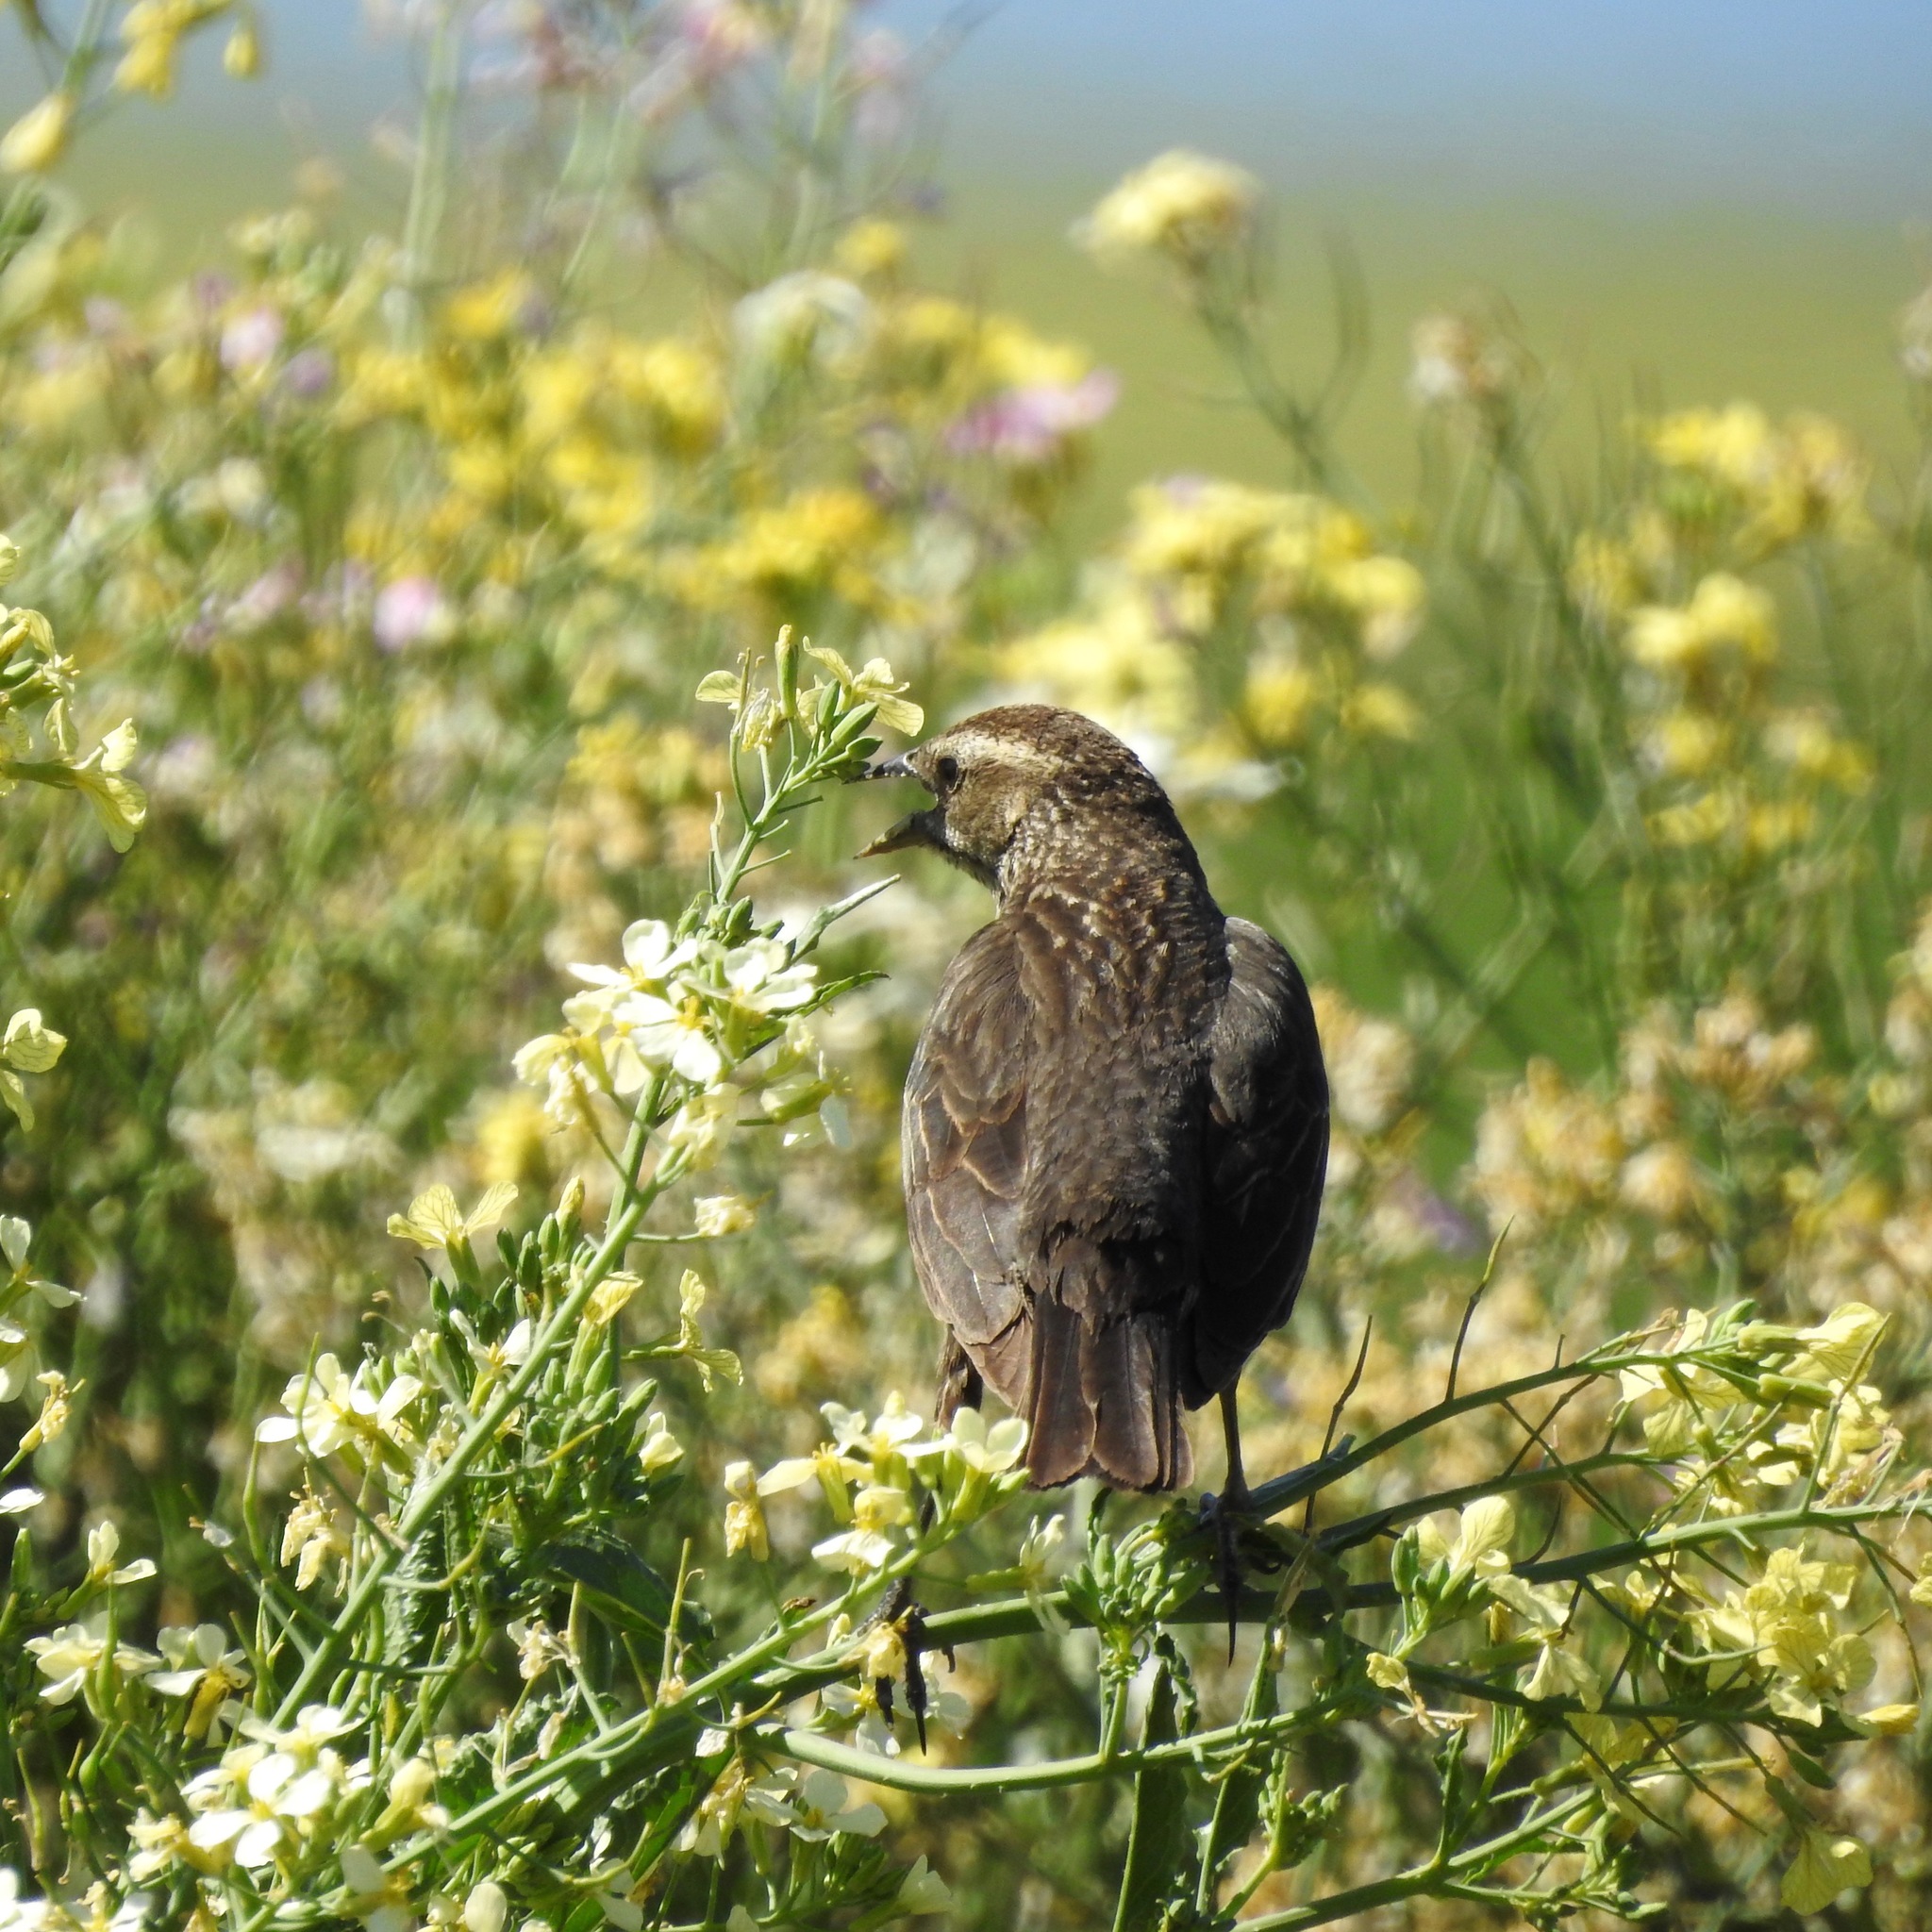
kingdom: Animalia
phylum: Chordata
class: Aves
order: Passeriformes
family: Icteridae
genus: Sturnella
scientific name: Sturnella neglecta
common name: Western meadowlark
